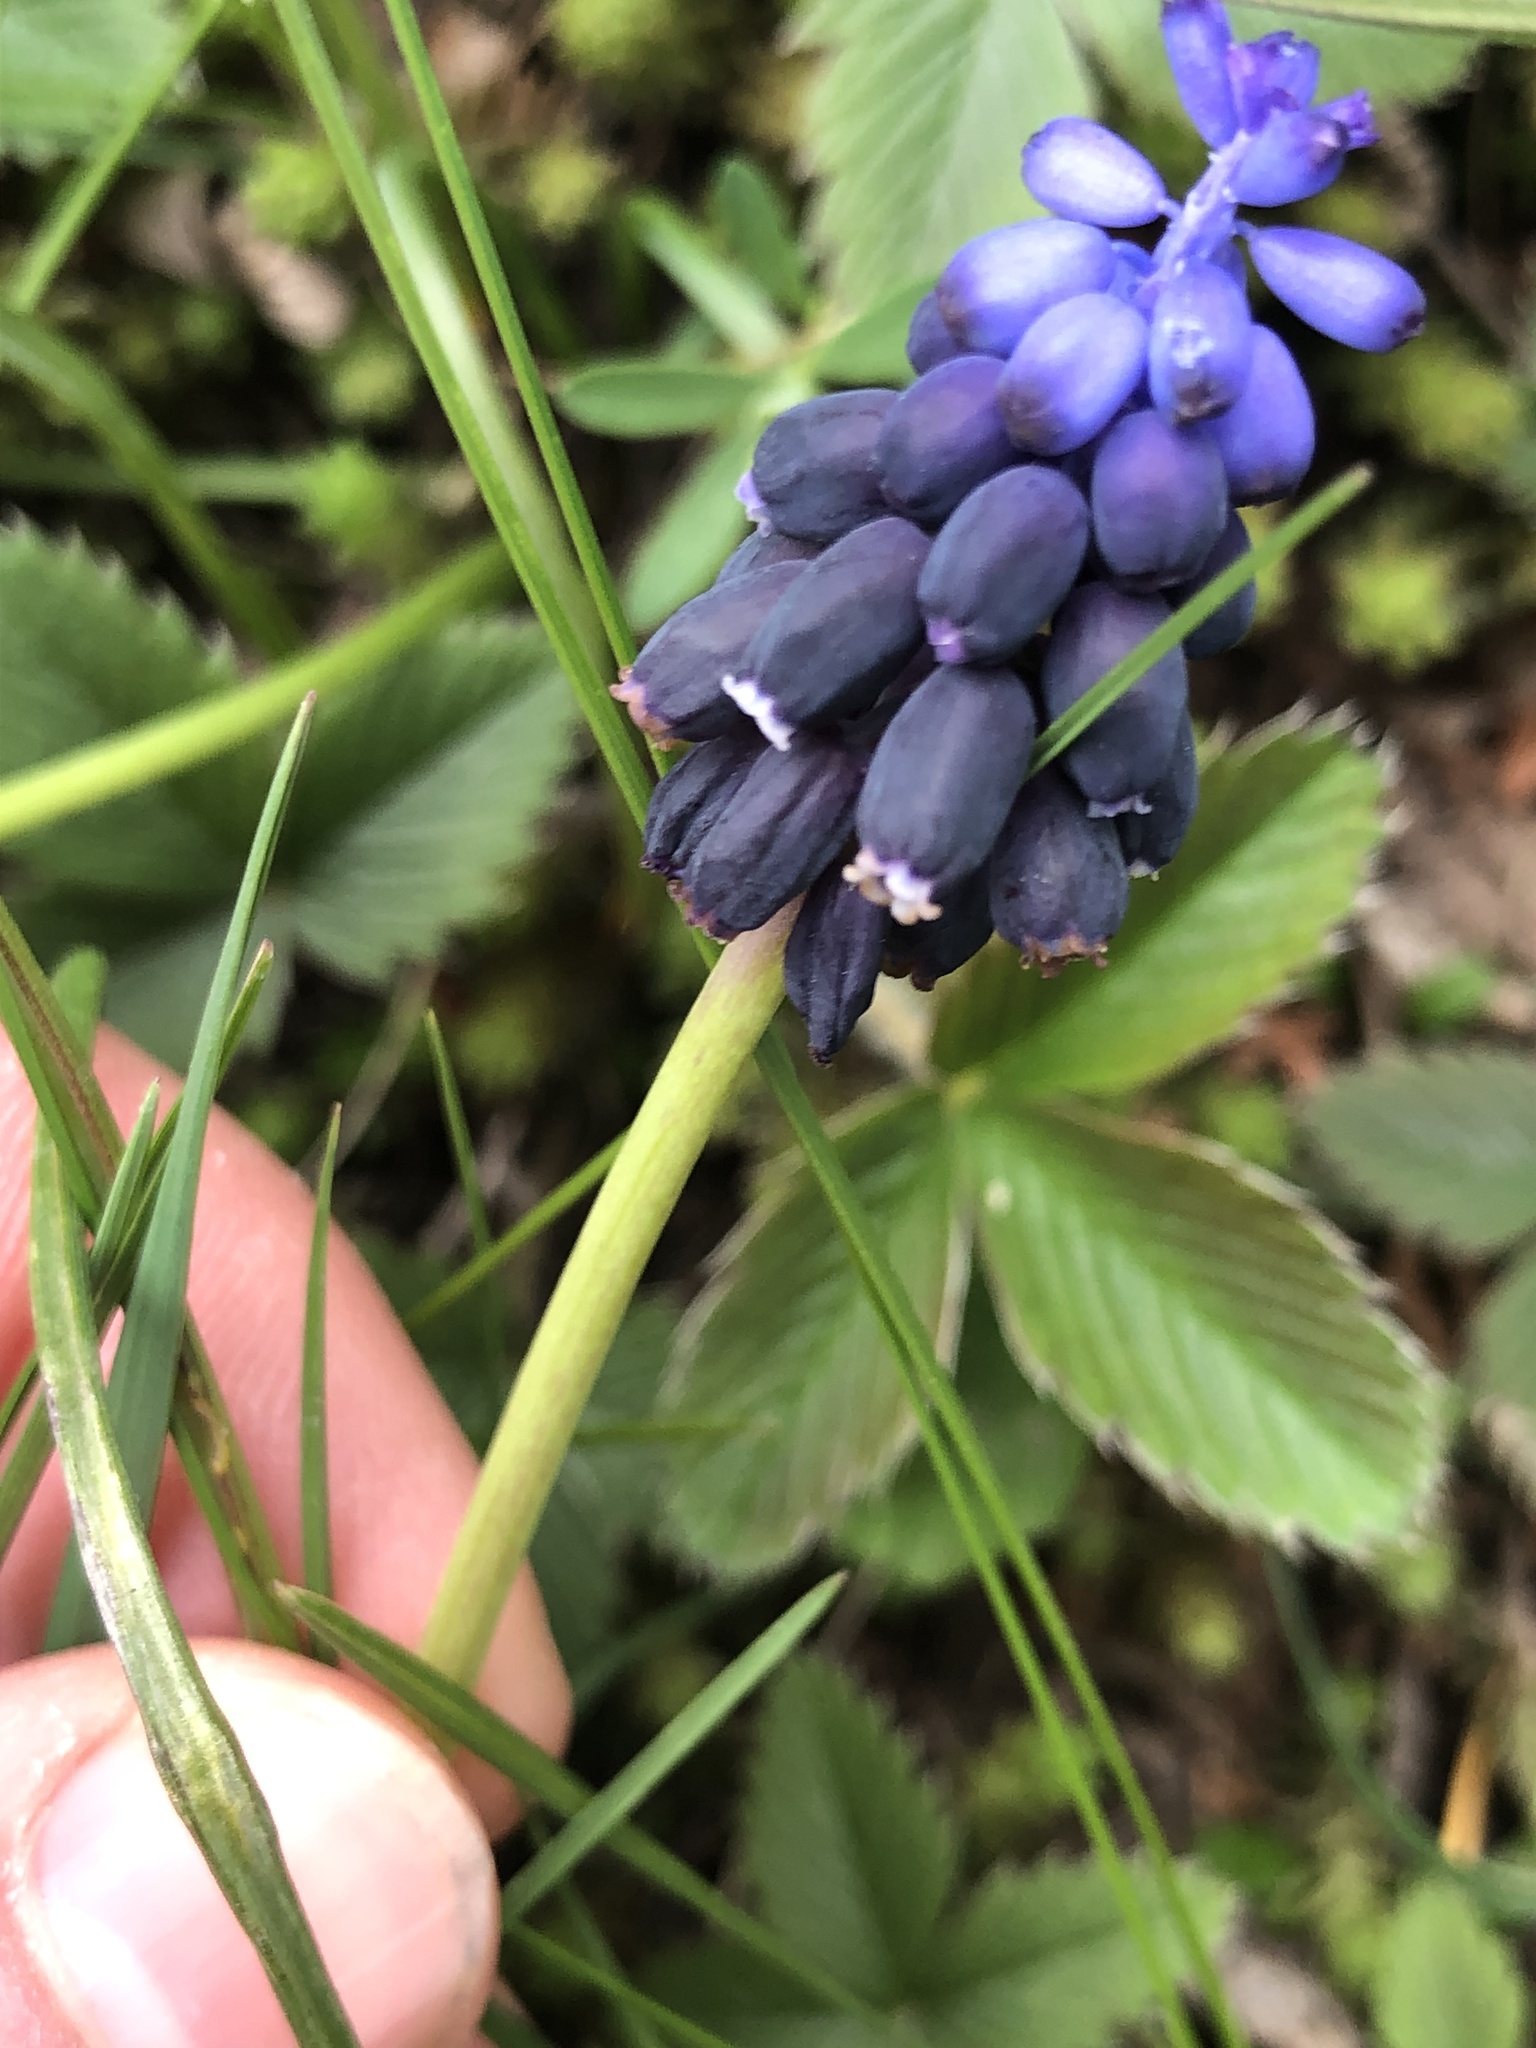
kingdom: Plantae
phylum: Tracheophyta
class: Liliopsida
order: Asparagales
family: Asparagaceae
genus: Muscari
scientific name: Muscari neglectum
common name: Grape-hyacinth
